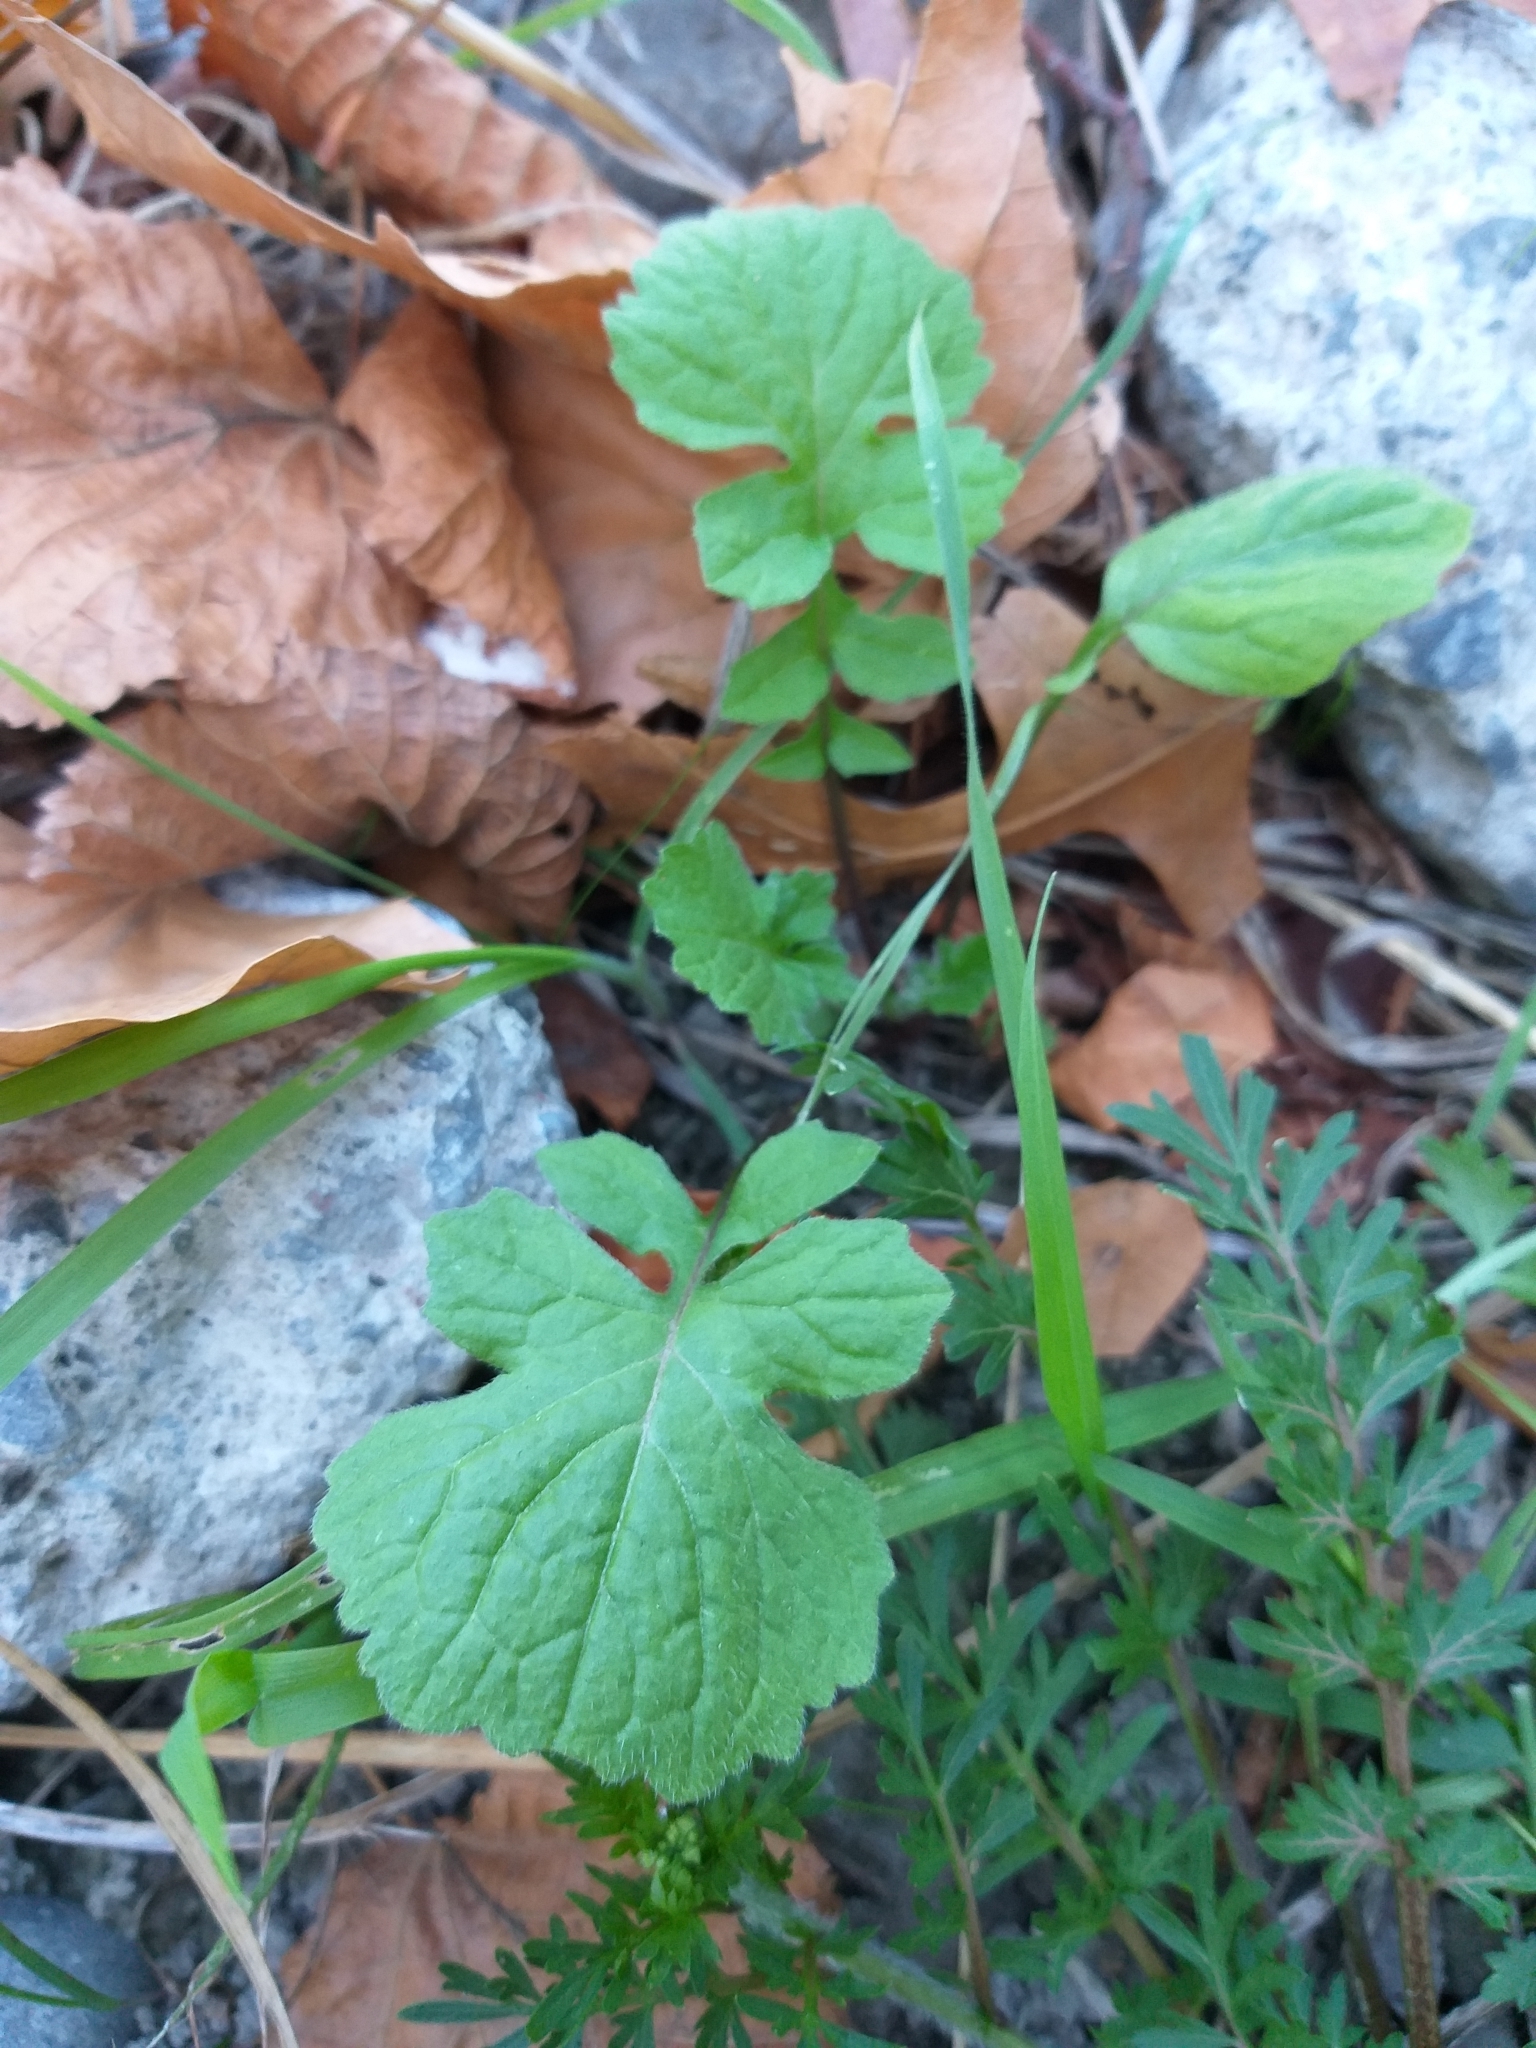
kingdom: Plantae
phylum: Tracheophyta
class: Magnoliopsida
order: Brassicales
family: Brassicaceae
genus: Sisymbrium
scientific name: Sisymbrium officinale
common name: Hedge mustard
